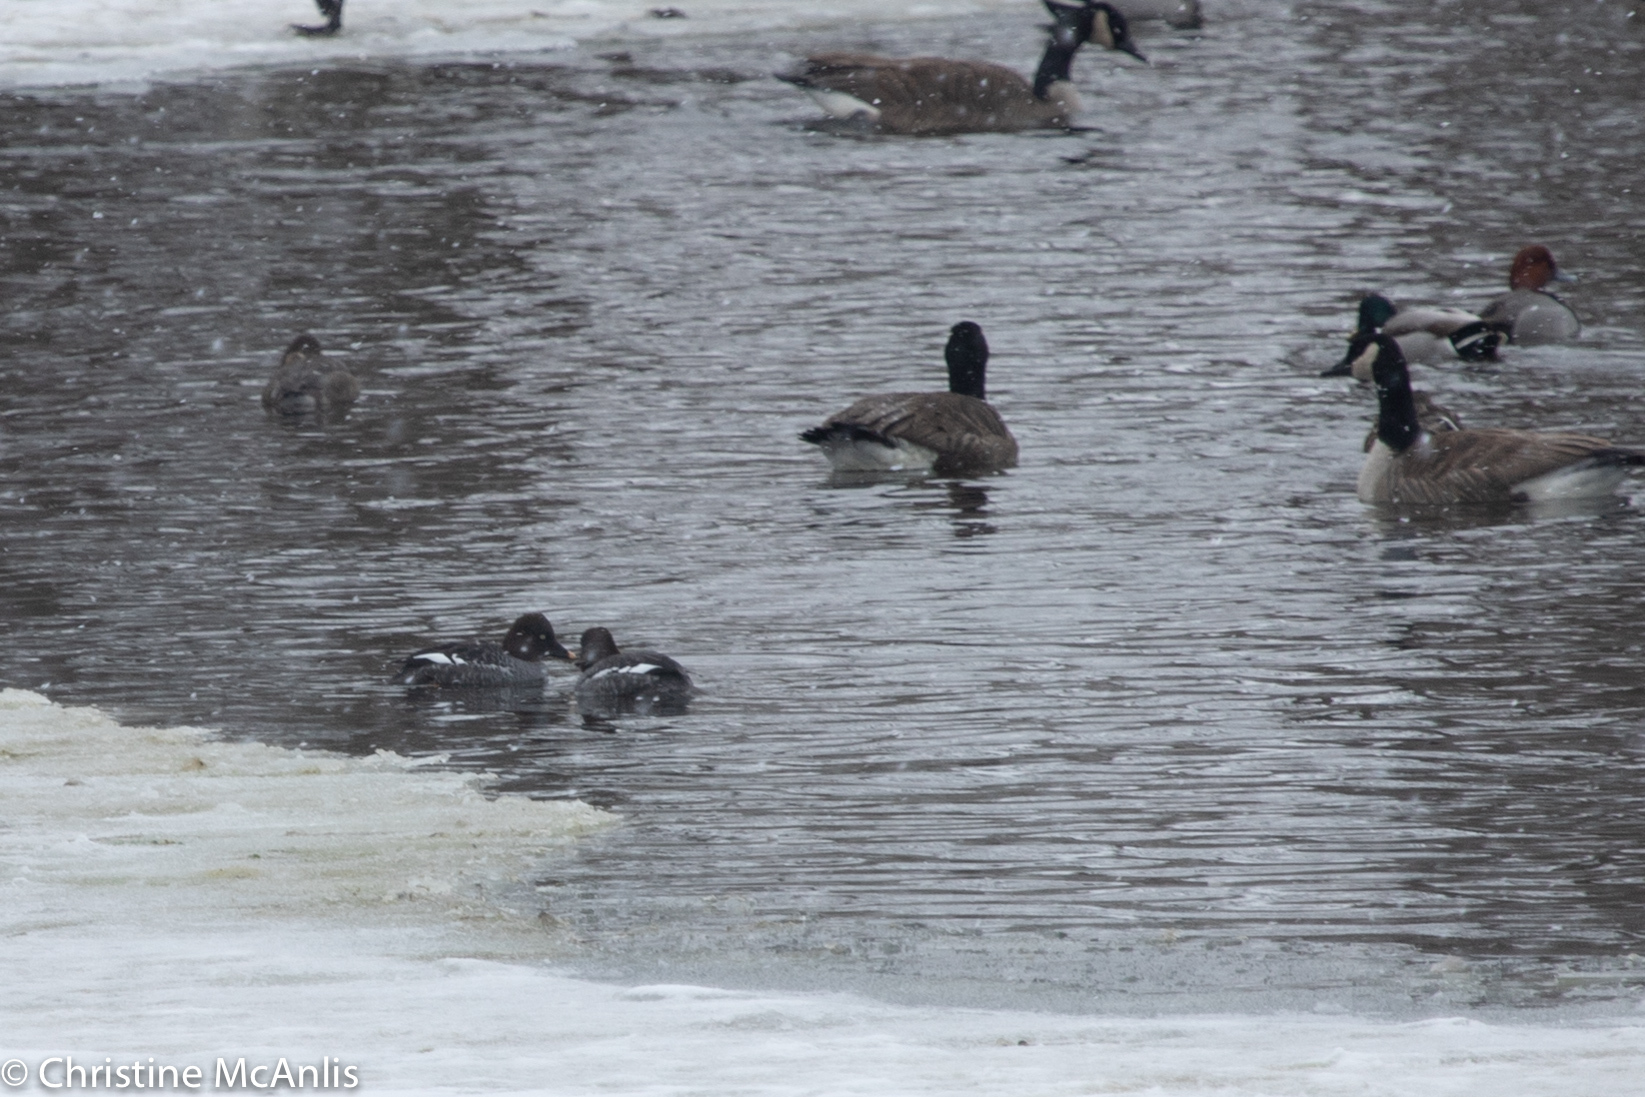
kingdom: Animalia
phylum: Chordata
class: Aves
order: Anseriformes
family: Anatidae
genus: Bucephala
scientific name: Bucephala clangula
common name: Common goldeneye
